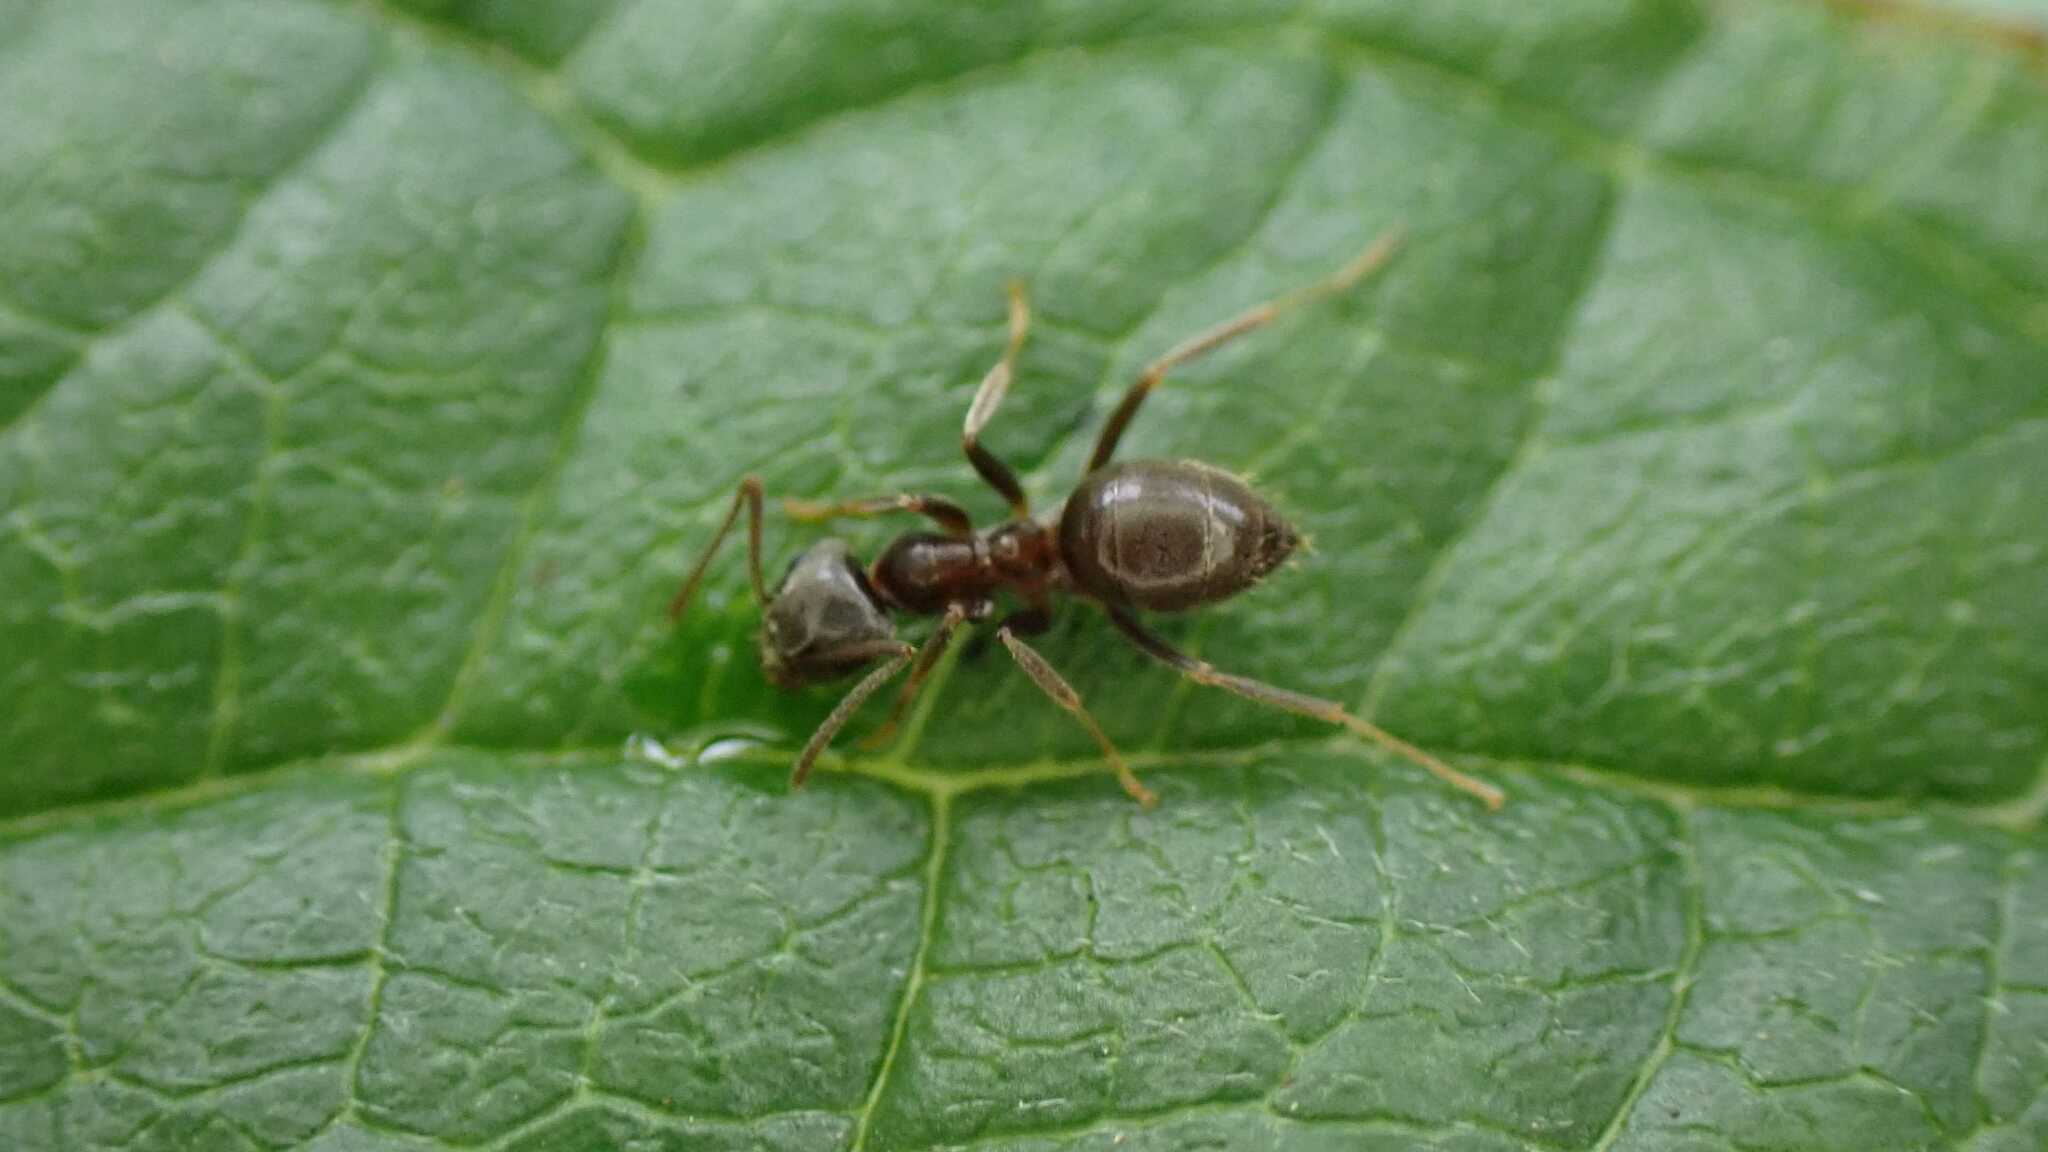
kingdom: Animalia
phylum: Arthropoda
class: Insecta
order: Hymenoptera
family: Formicidae
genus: Lasius
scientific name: Lasius
